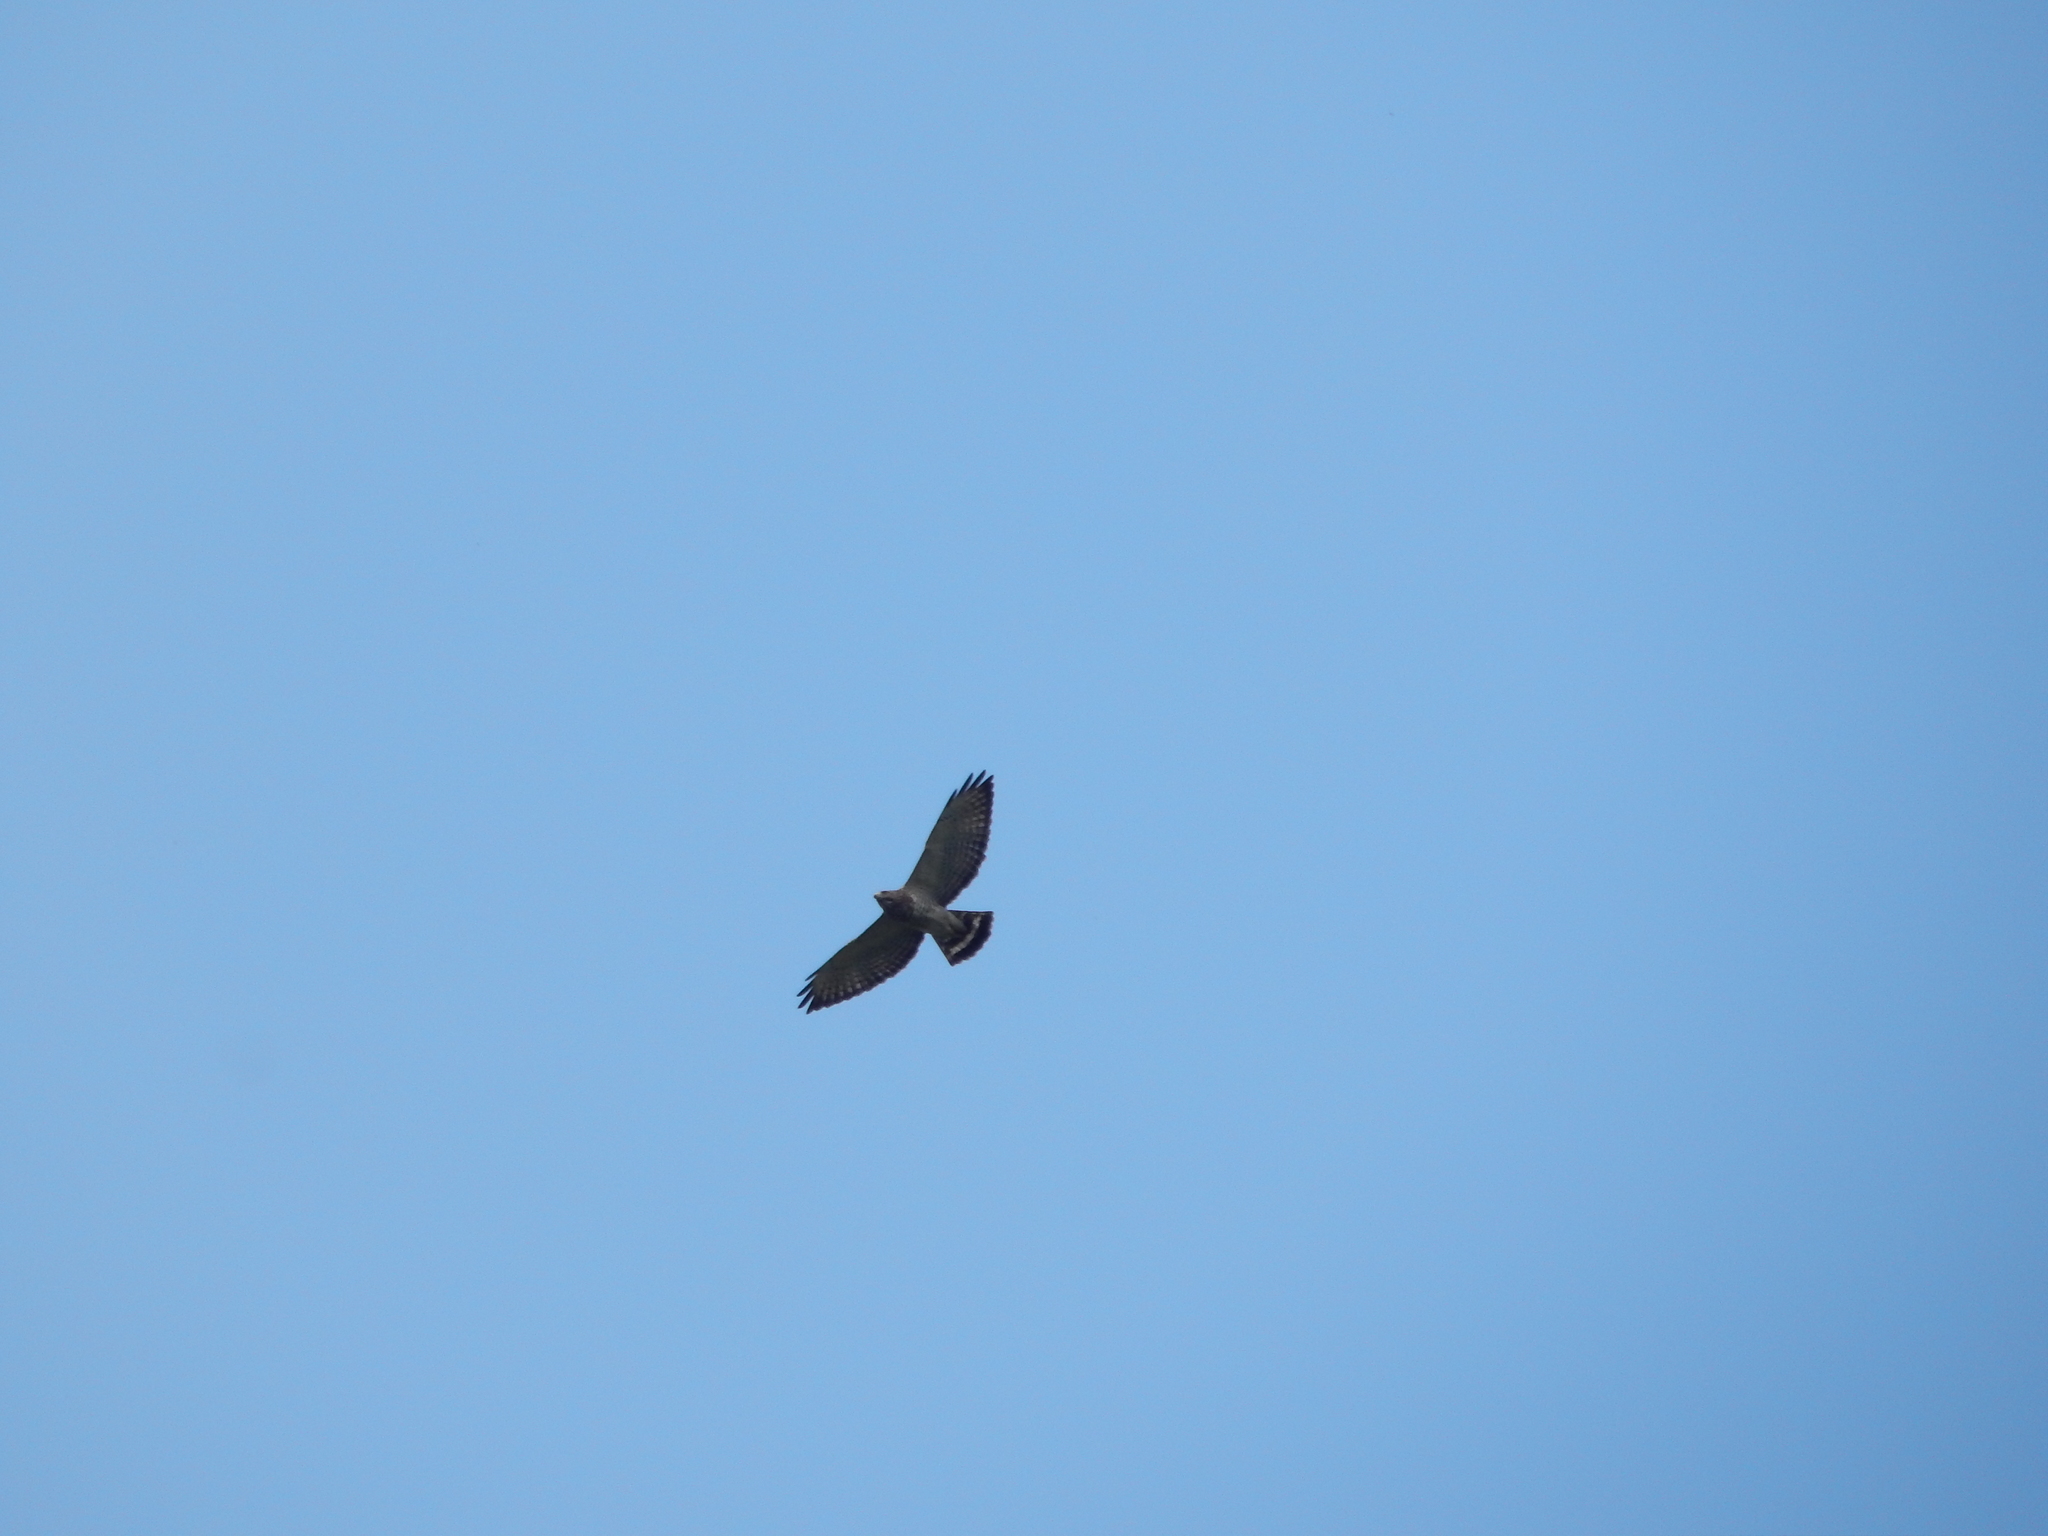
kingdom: Animalia
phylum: Chordata
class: Aves
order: Accipitriformes
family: Accipitridae
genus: Buteo
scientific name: Buteo platypterus
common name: Broad-winged hawk
